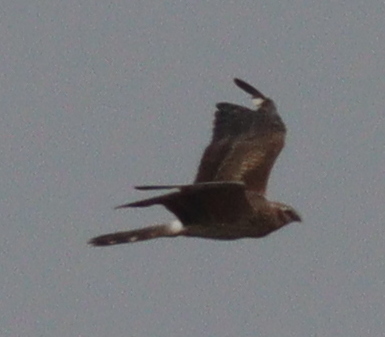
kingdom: Animalia
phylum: Chordata
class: Aves
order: Accipitriformes
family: Accipitridae
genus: Circus
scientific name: Circus pygargus
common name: Montagu's harrier
